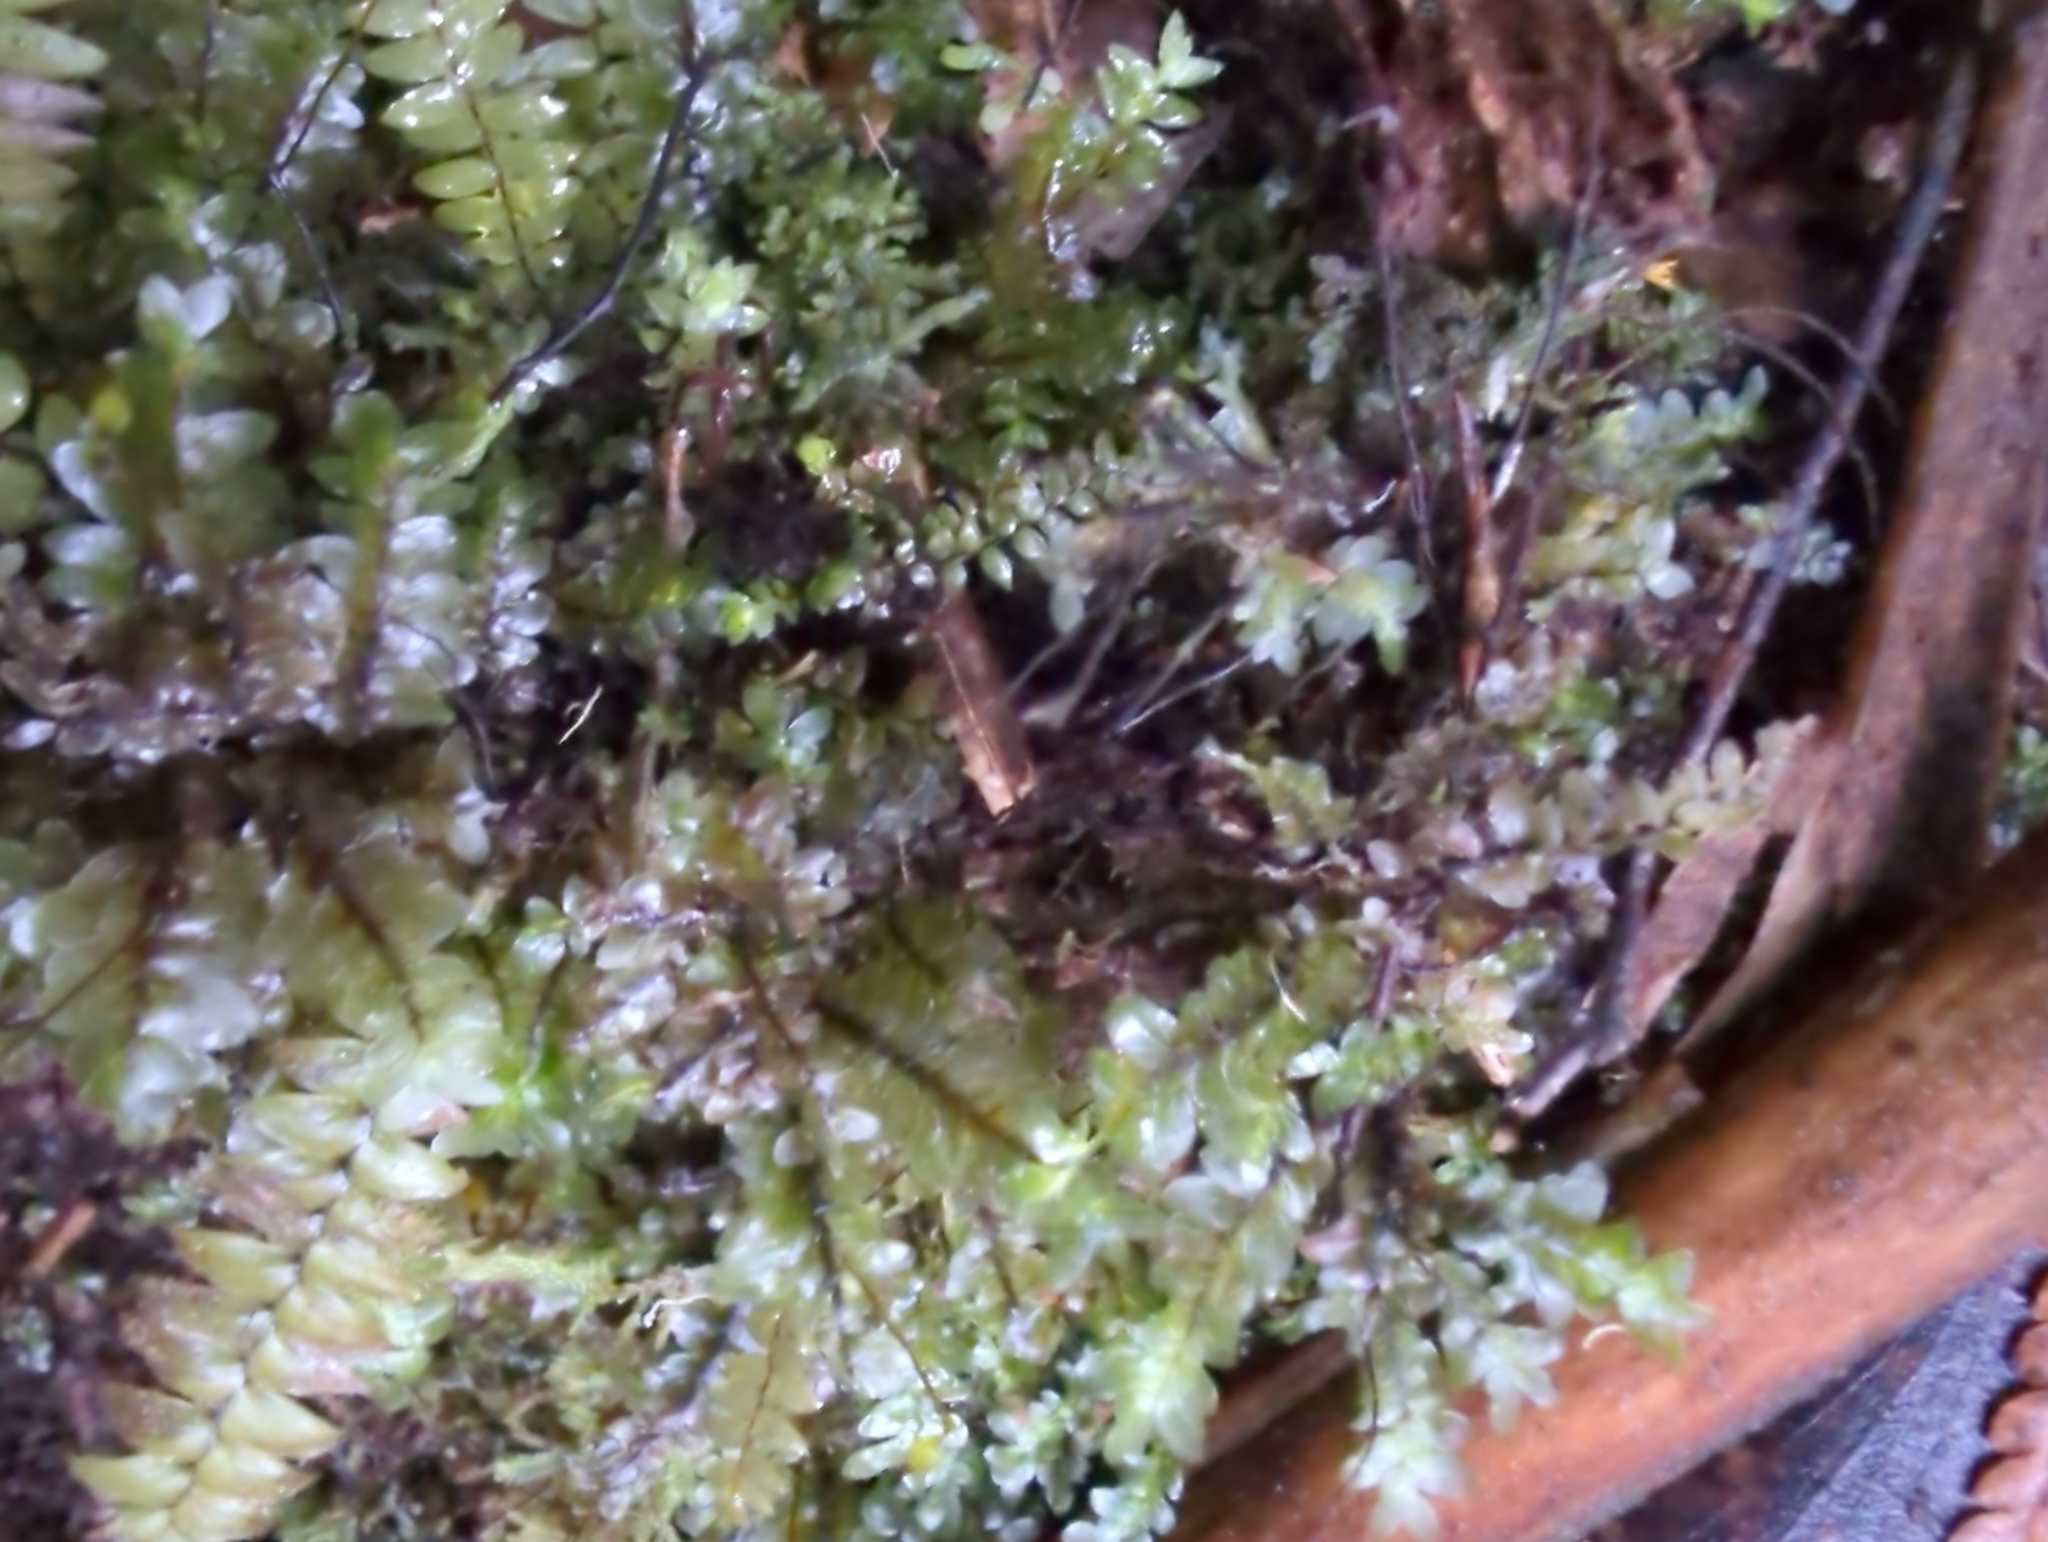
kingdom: Plantae
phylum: Bryophyta
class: Bryopsida
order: Hookeriales
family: Daltoniaceae
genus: Achrophyllum
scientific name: Achrophyllum dentatum
